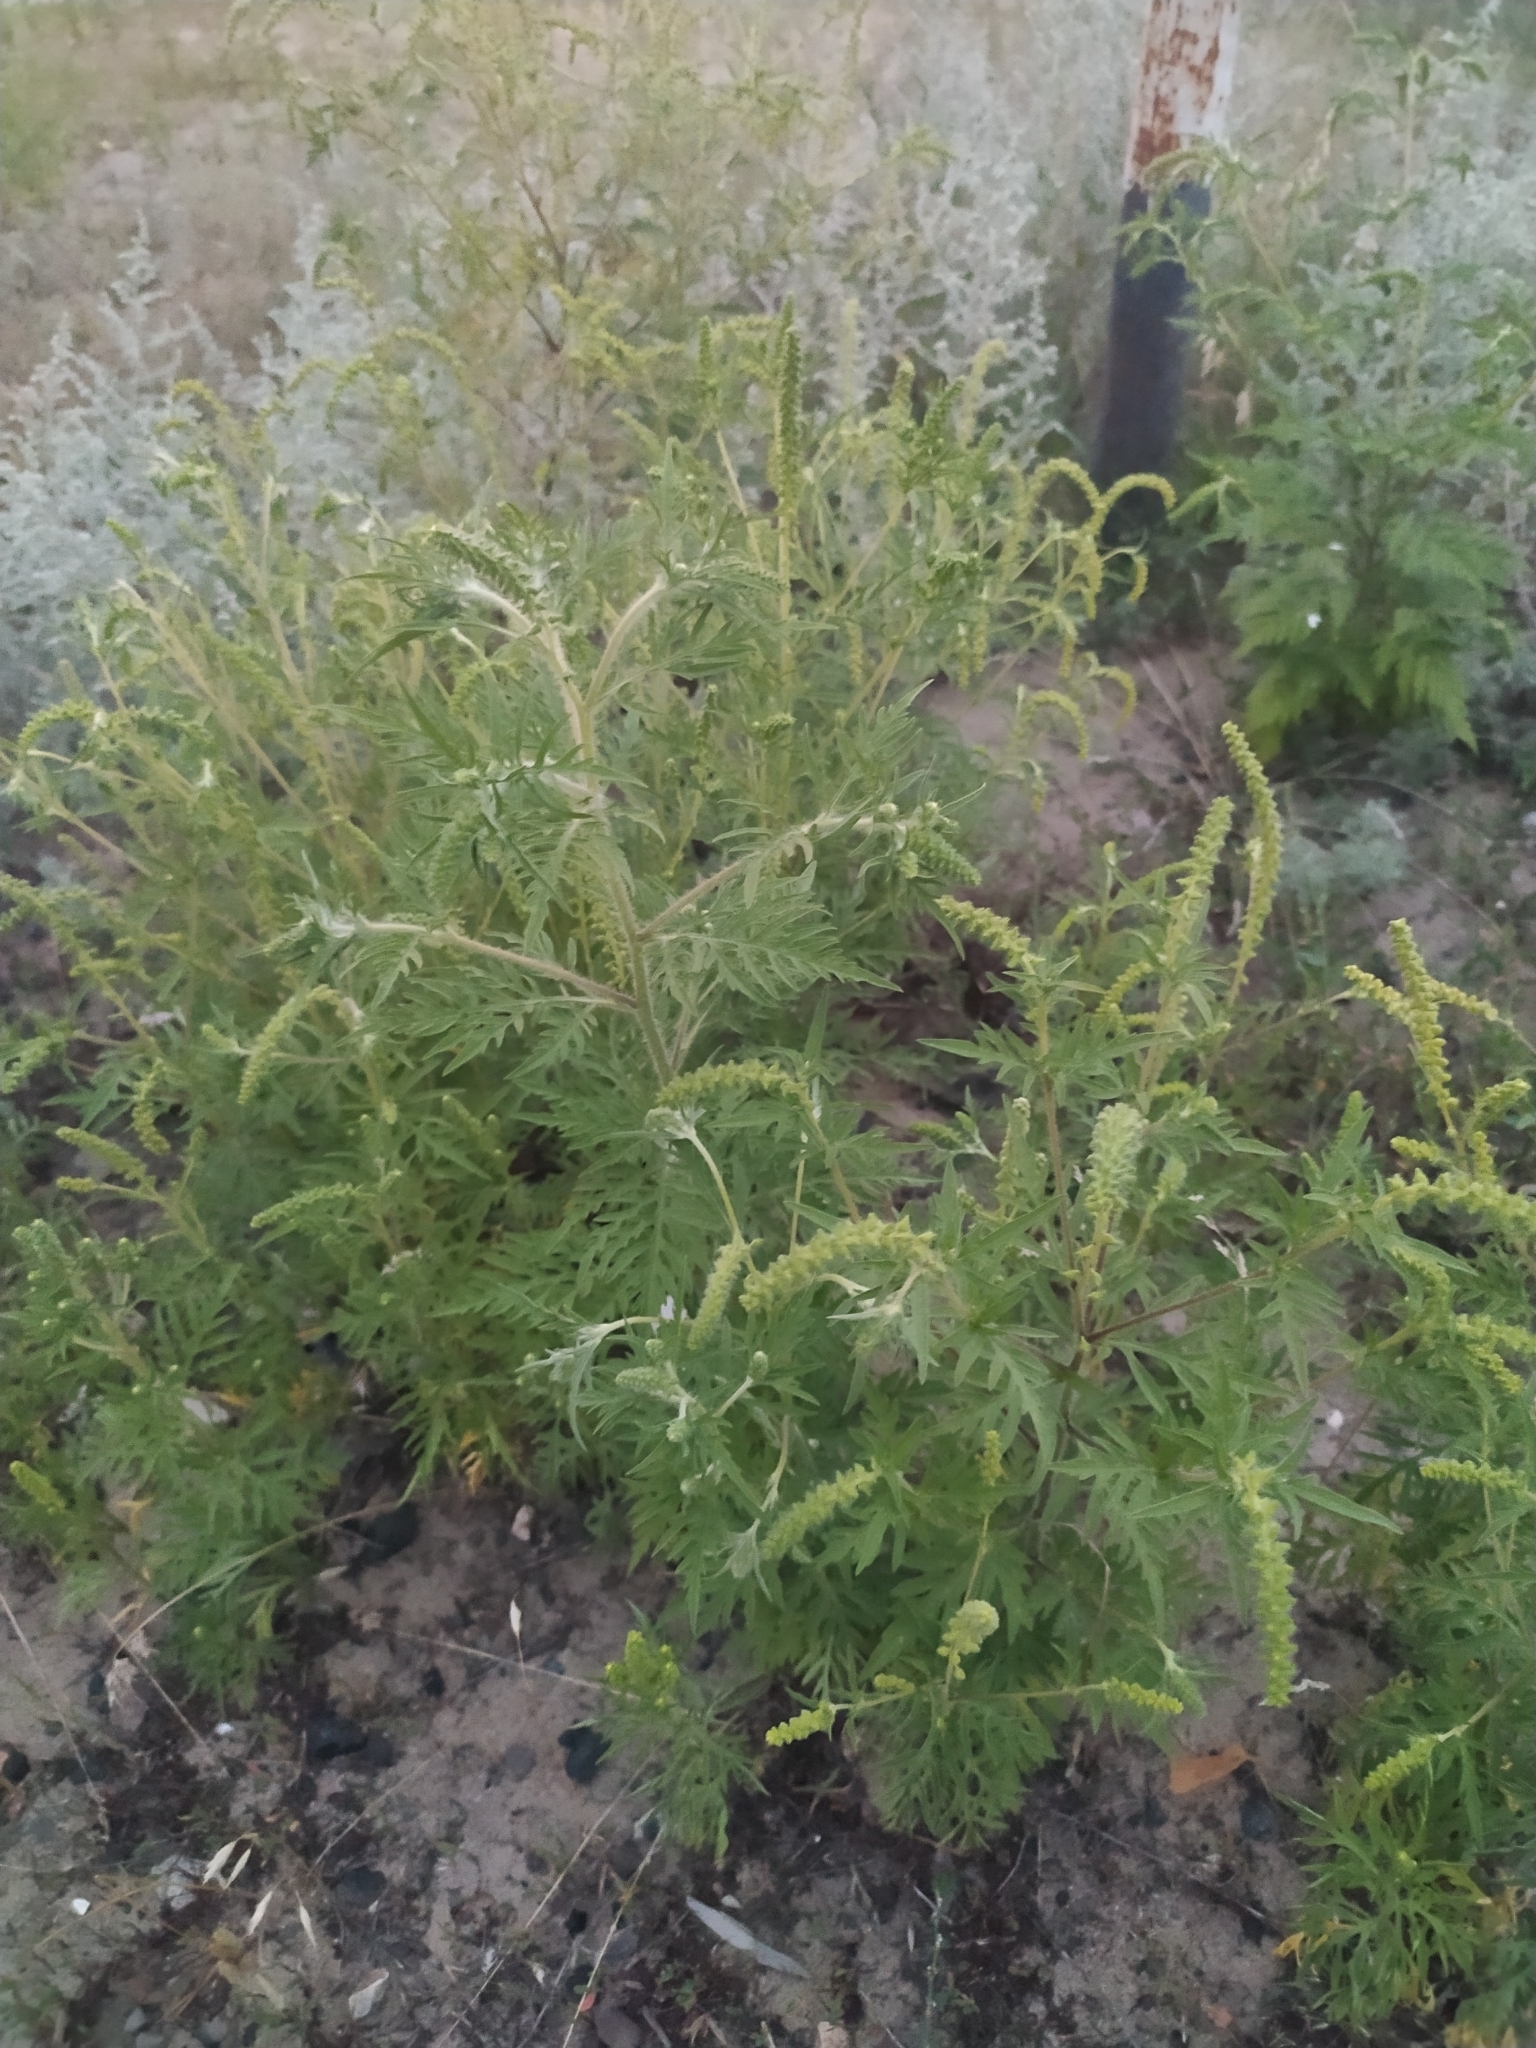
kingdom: Plantae
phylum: Tracheophyta
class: Magnoliopsida
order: Asterales
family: Asteraceae
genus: Ambrosia
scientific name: Ambrosia artemisiifolia
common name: Annual ragweed
